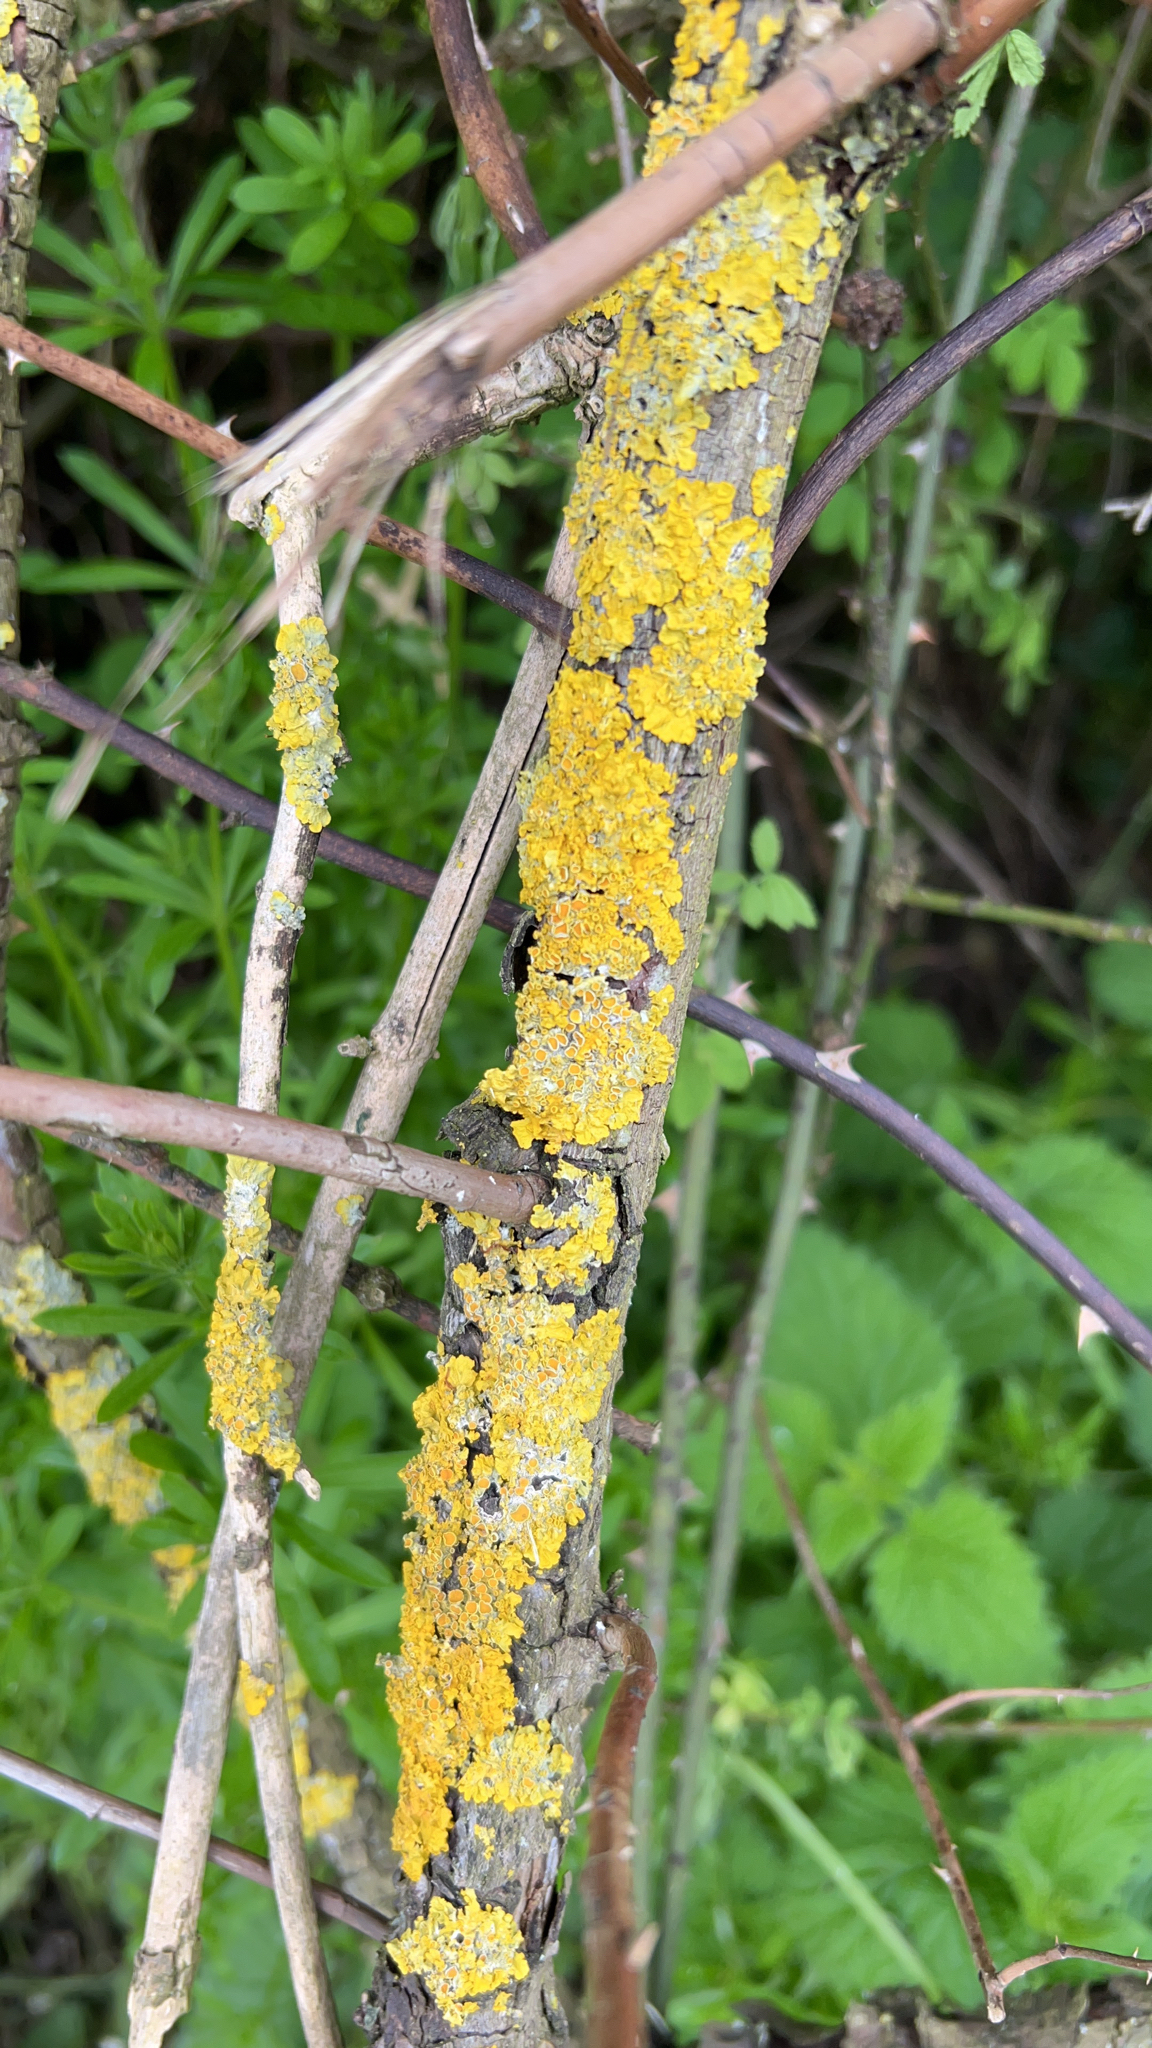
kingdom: Fungi
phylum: Ascomycota
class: Lecanoromycetes
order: Teloschistales
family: Teloschistaceae
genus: Xanthoria
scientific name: Xanthoria parietina
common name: Common orange lichen
